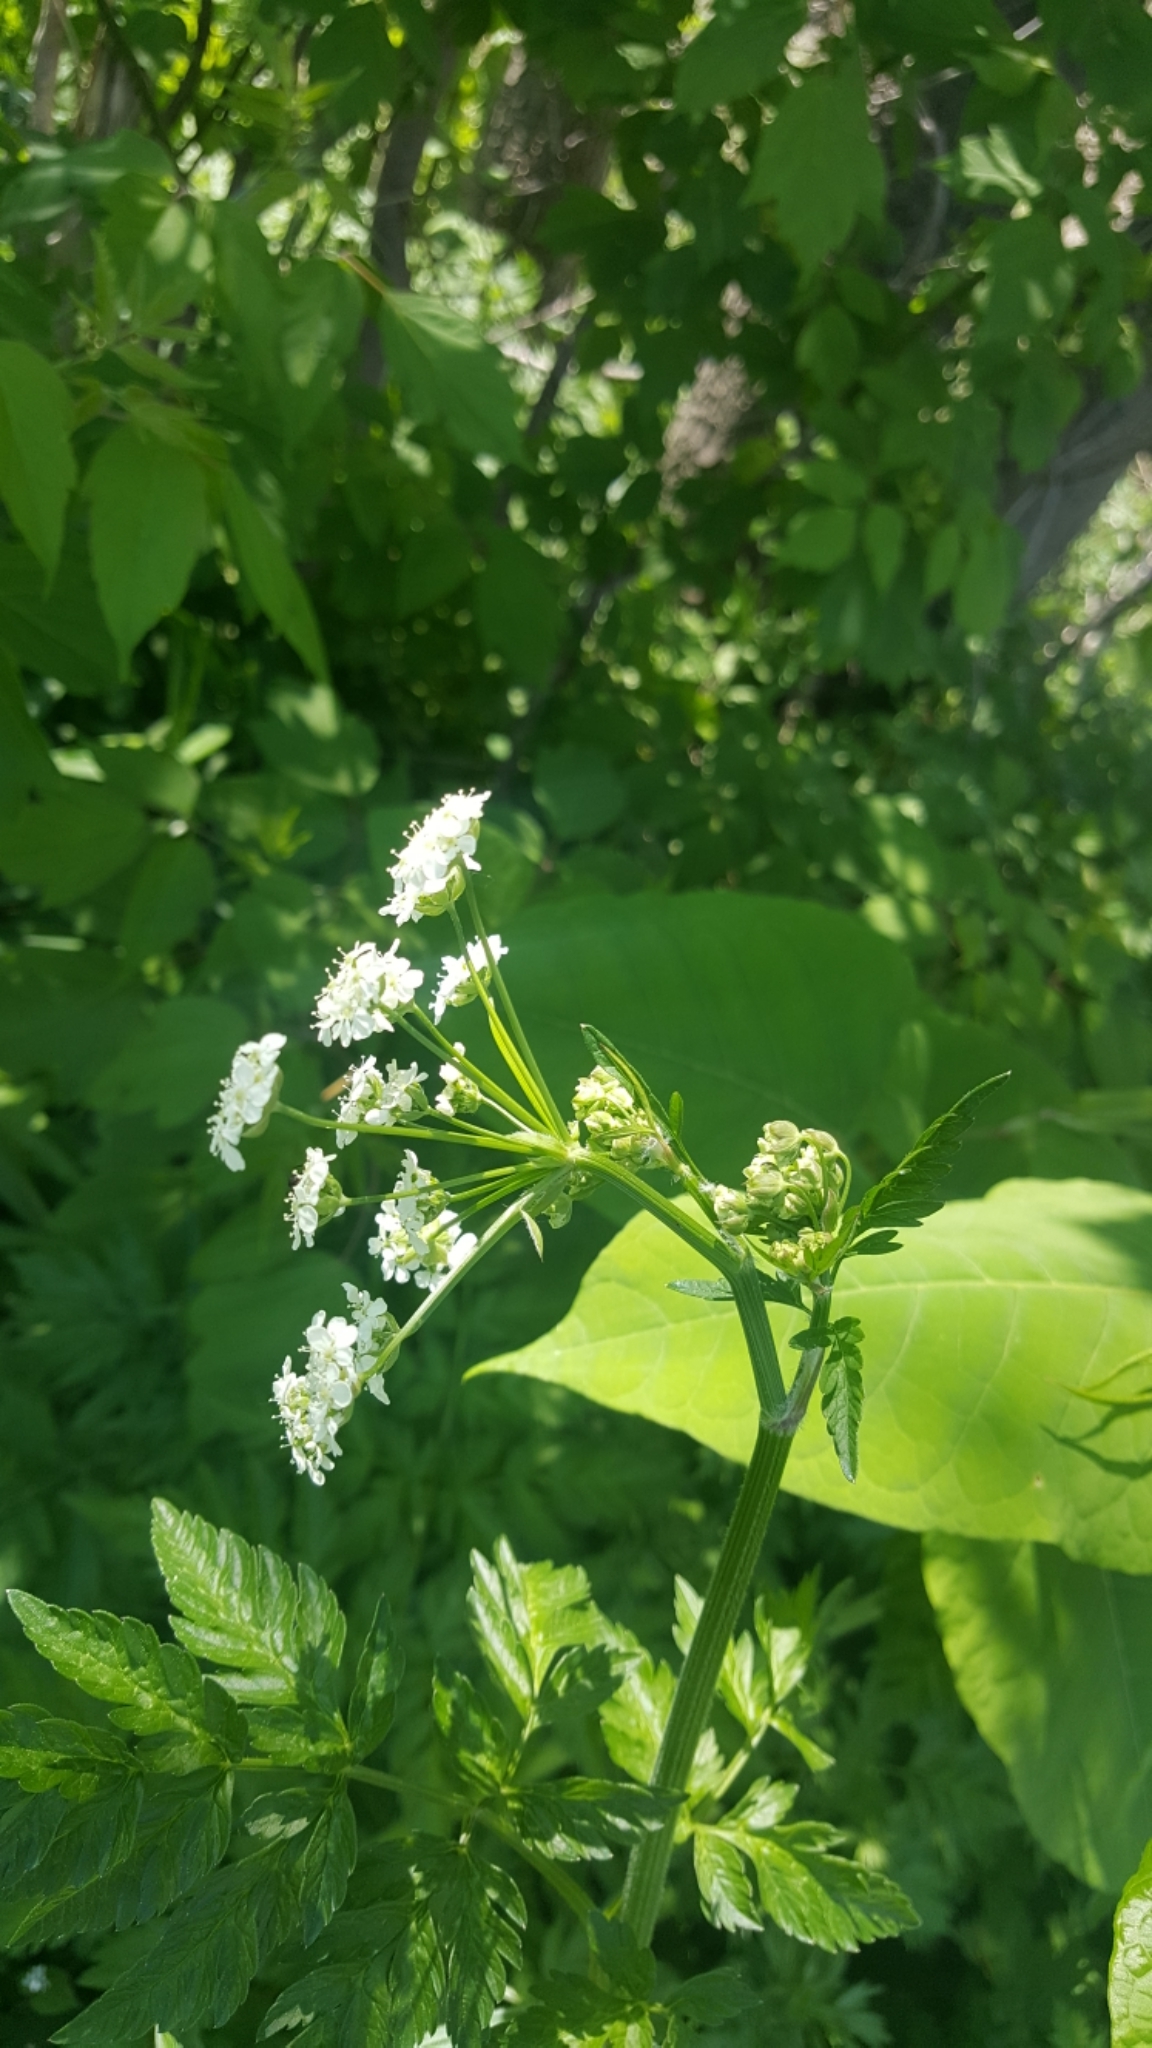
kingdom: Plantae
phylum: Tracheophyta
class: Magnoliopsida
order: Apiales
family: Apiaceae
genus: Anthriscus
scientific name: Anthriscus sylvestris
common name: Cow parsley
